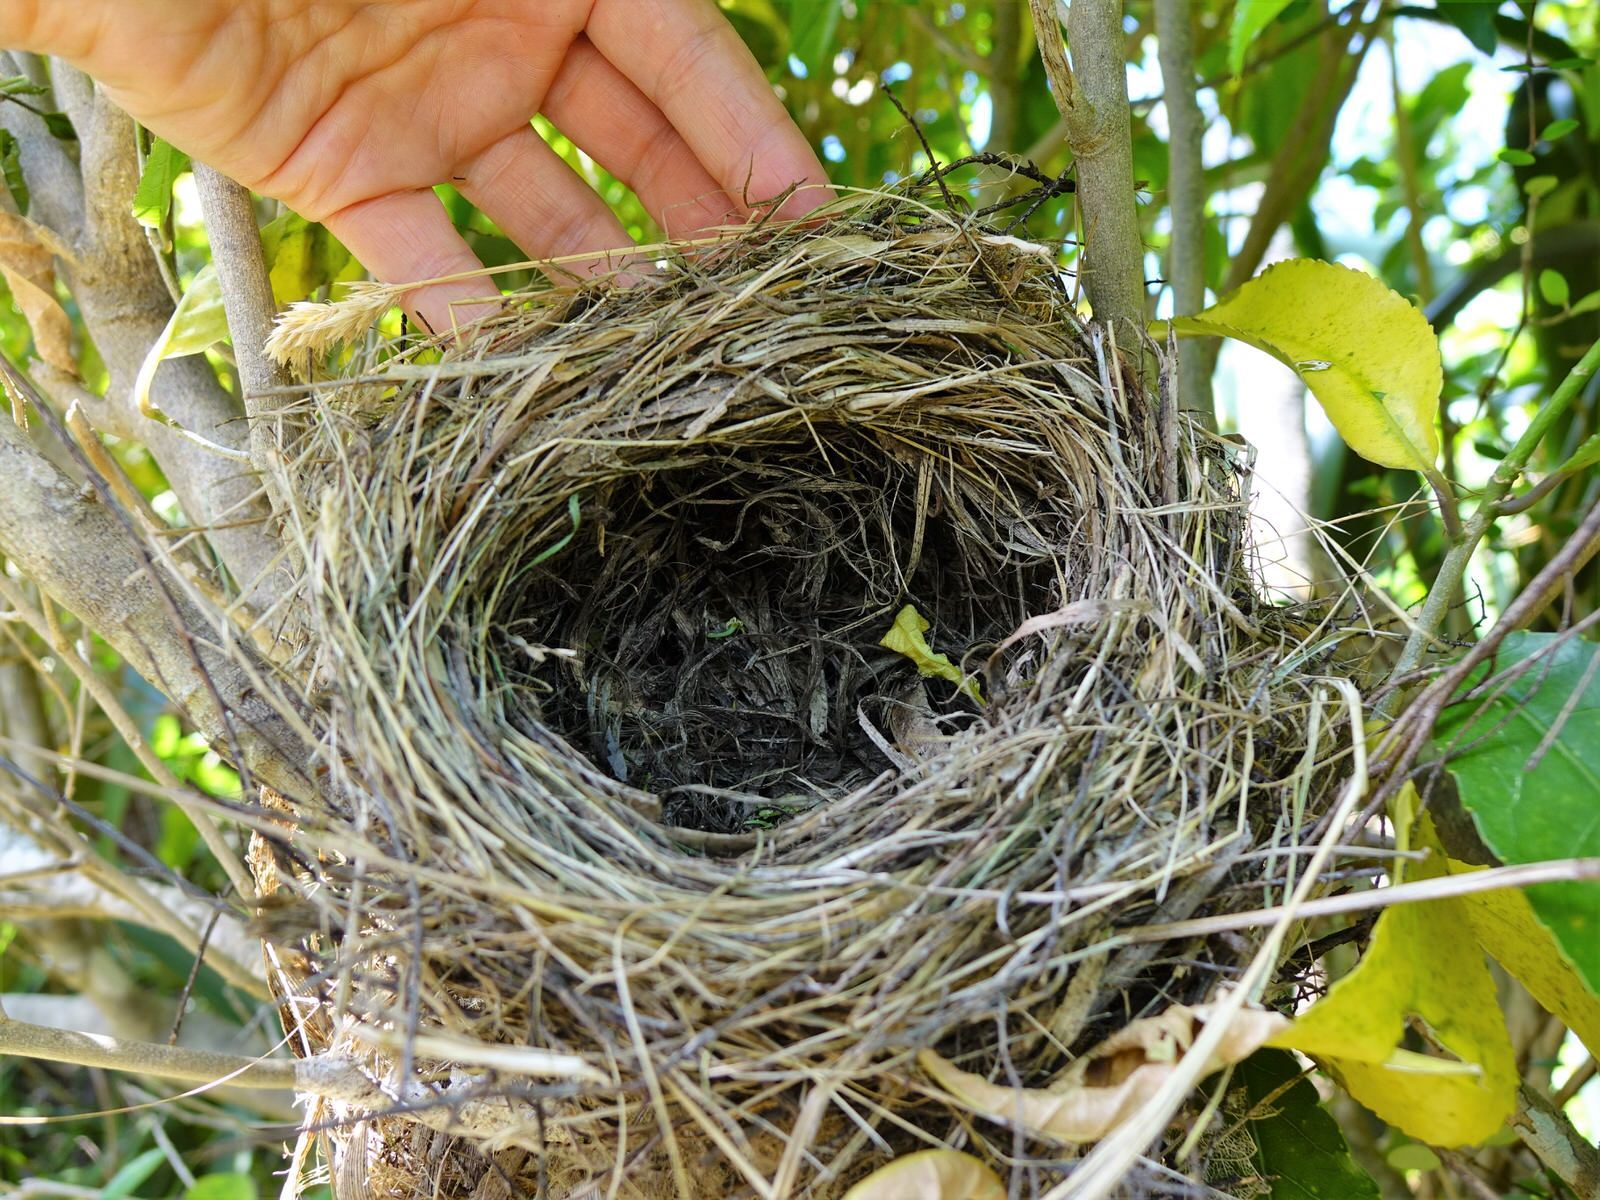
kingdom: Animalia
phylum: Chordata
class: Aves
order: Passeriformes
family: Turdidae
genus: Turdus
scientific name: Turdus merula
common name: Common blackbird
